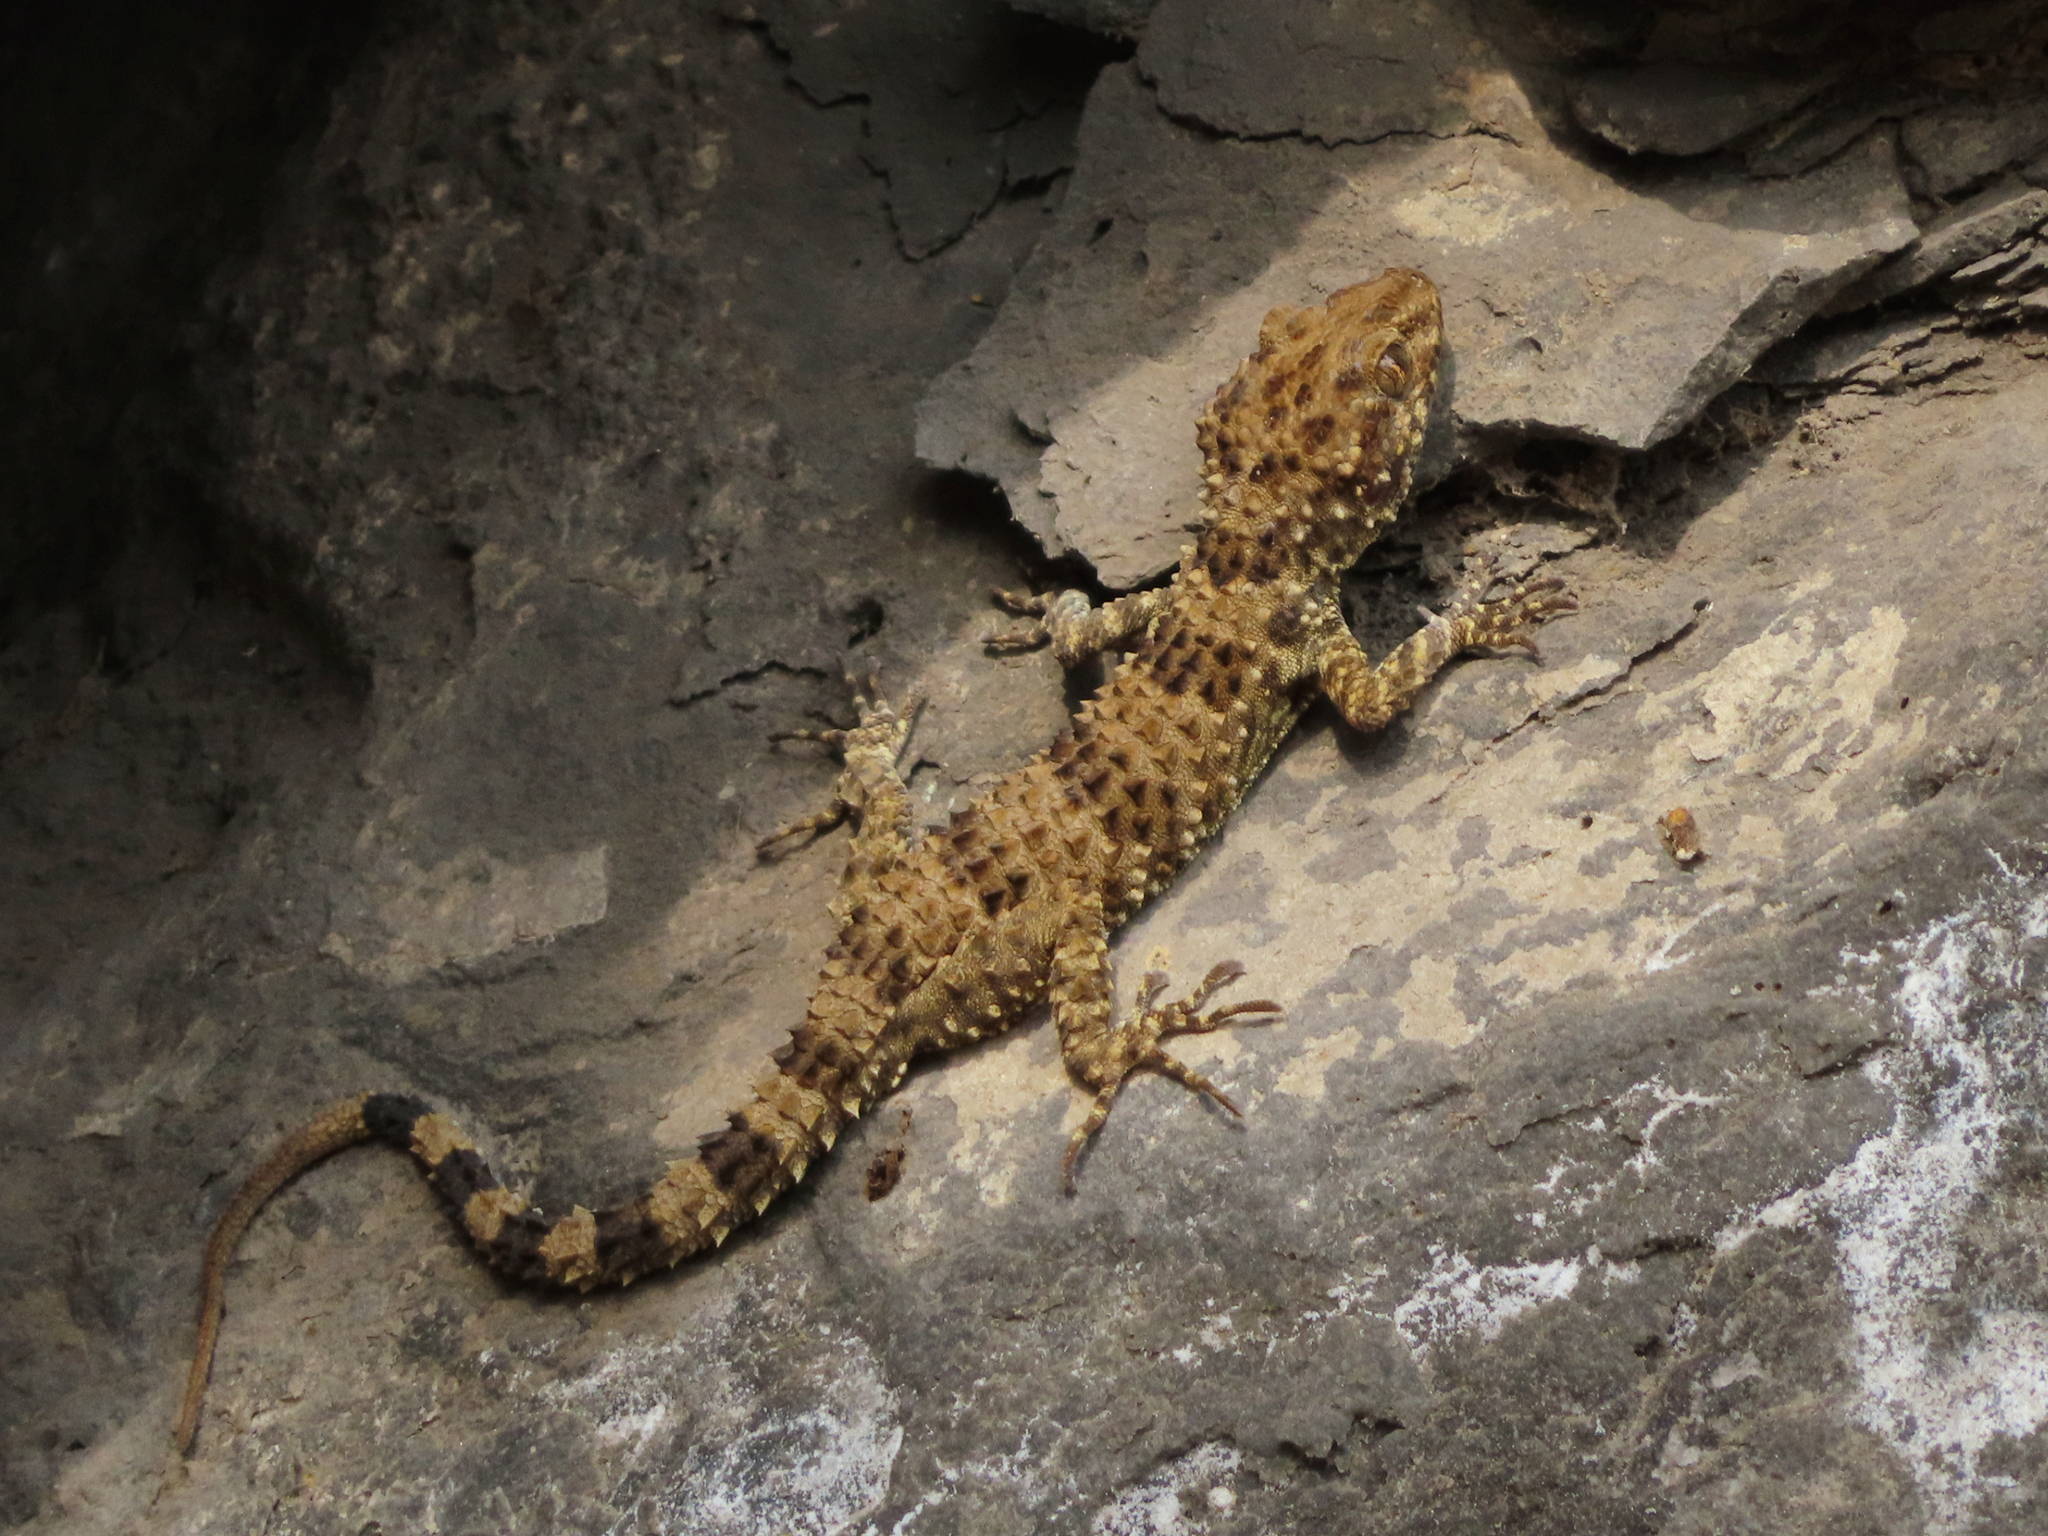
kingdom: Animalia
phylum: Chordata
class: Squamata
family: Gekkonidae
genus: Tenuidactylus
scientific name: Tenuidactylus caspius
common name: Caspian bent-toed gecko
